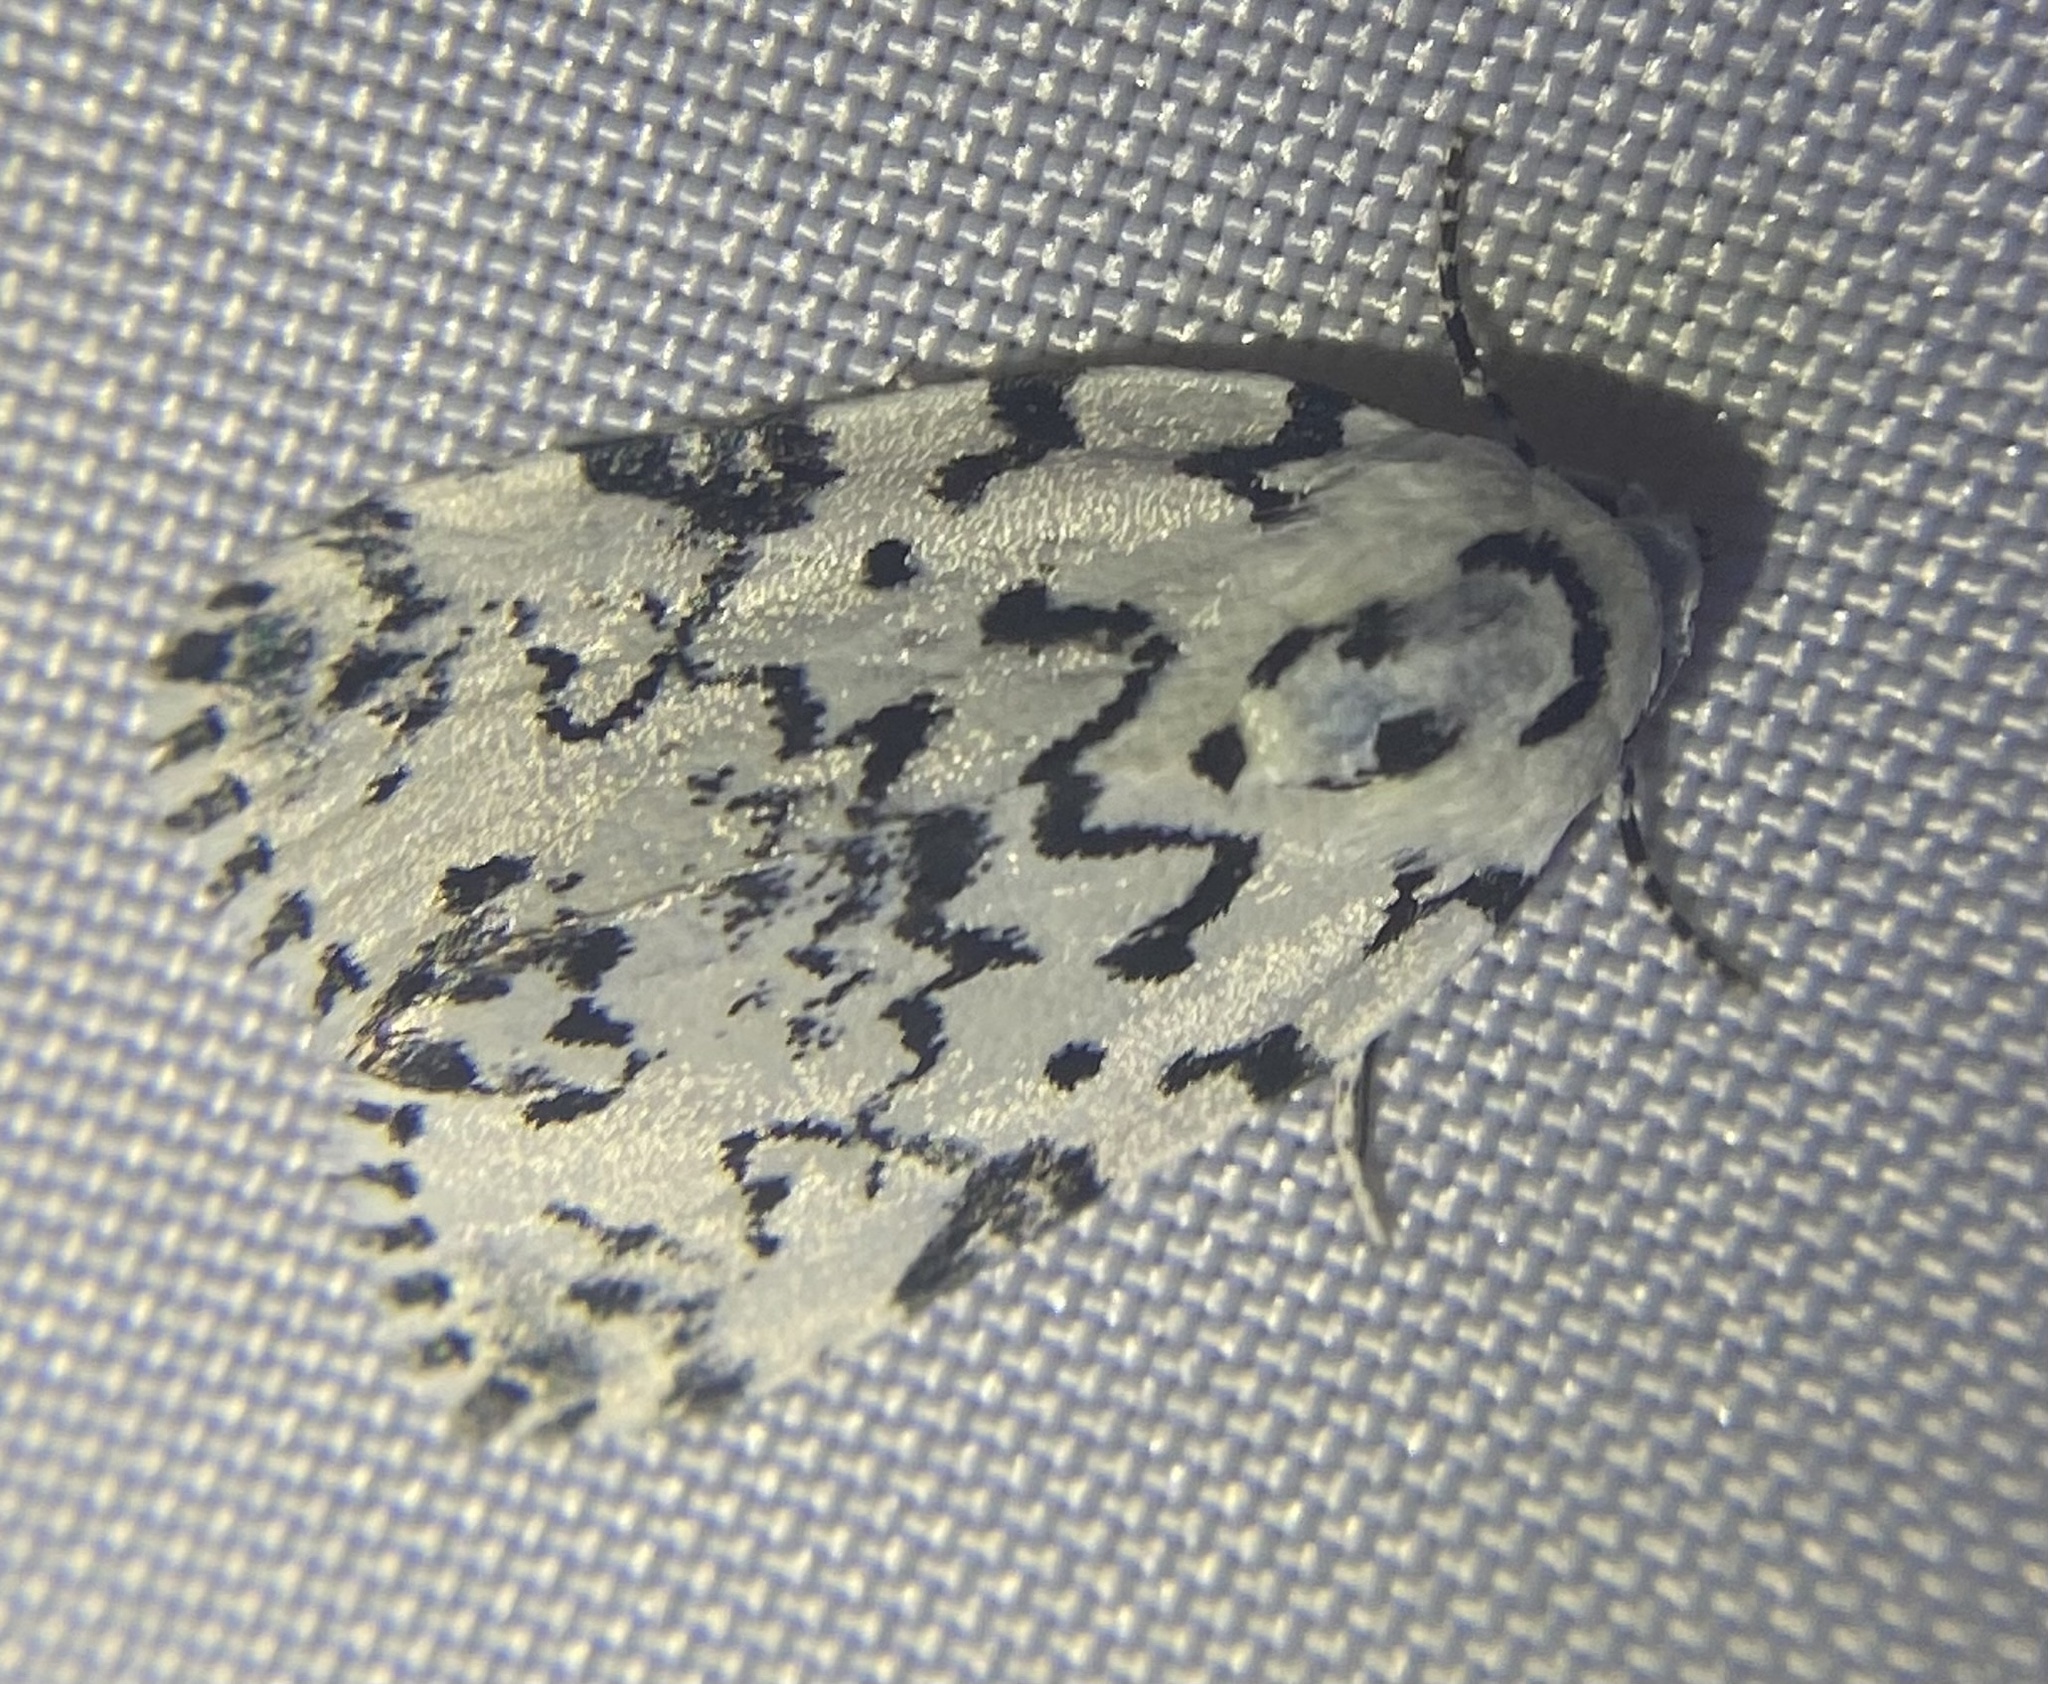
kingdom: Animalia
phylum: Arthropoda
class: Insecta
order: Lepidoptera
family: Noctuidae
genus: Polygrammate
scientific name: Polygrammate hebraeicum
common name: Hebrew moth
